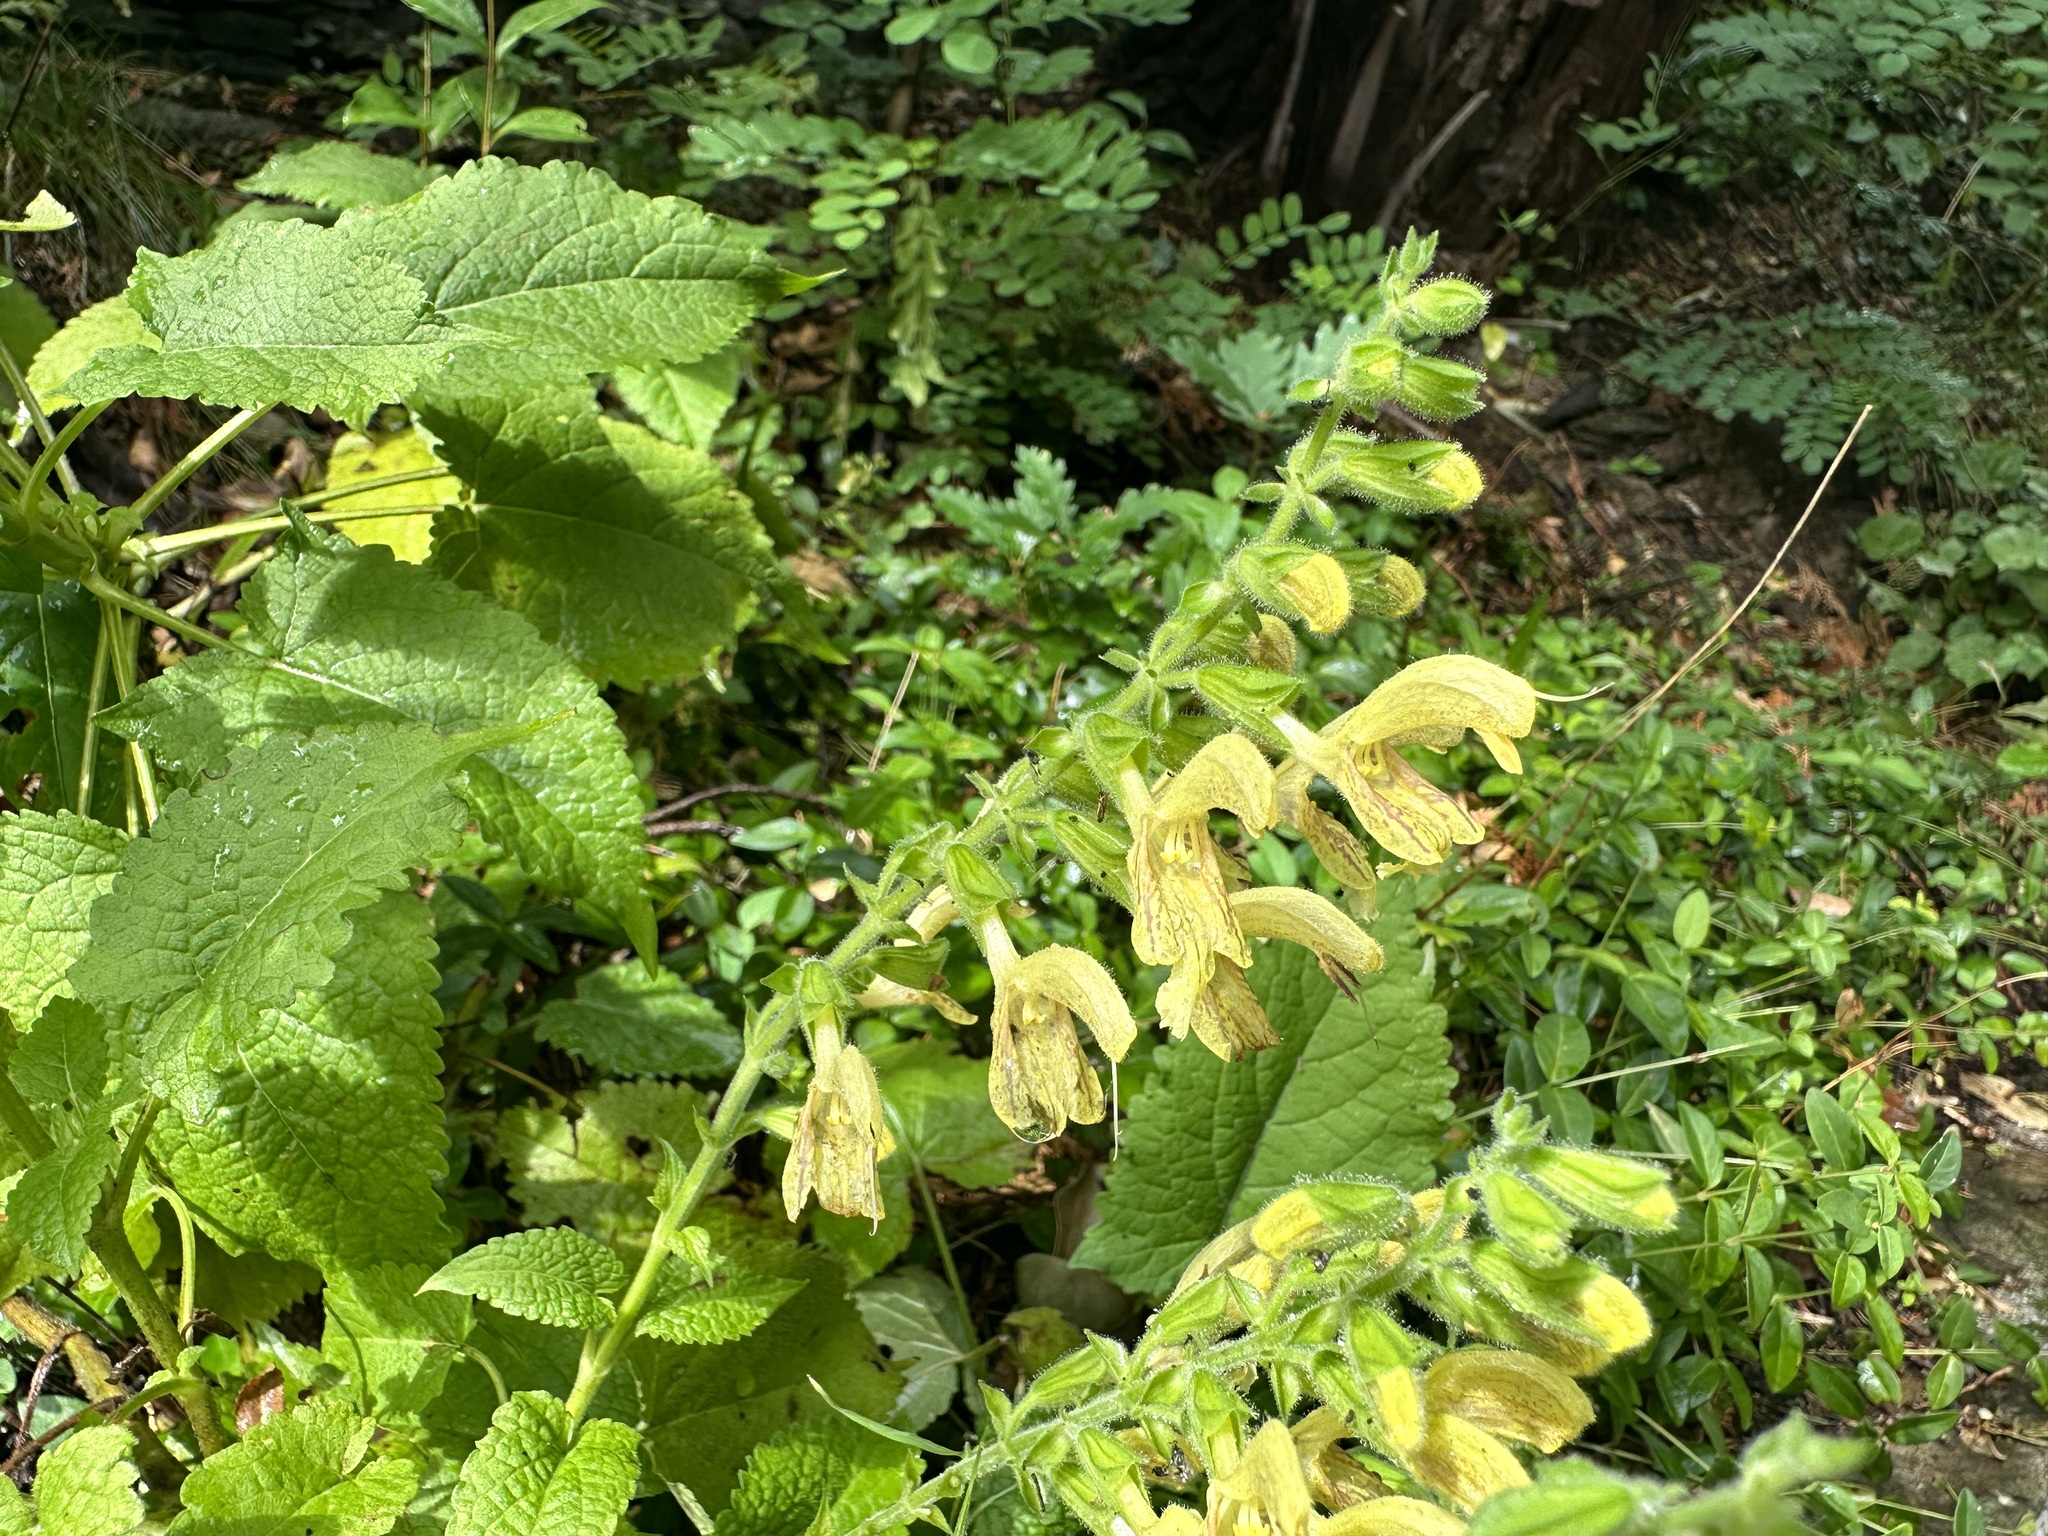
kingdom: Plantae
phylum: Tracheophyta
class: Magnoliopsida
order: Lamiales
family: Lamiaceae
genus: Salvia
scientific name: Salvia glutinosa
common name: Sticky clary
